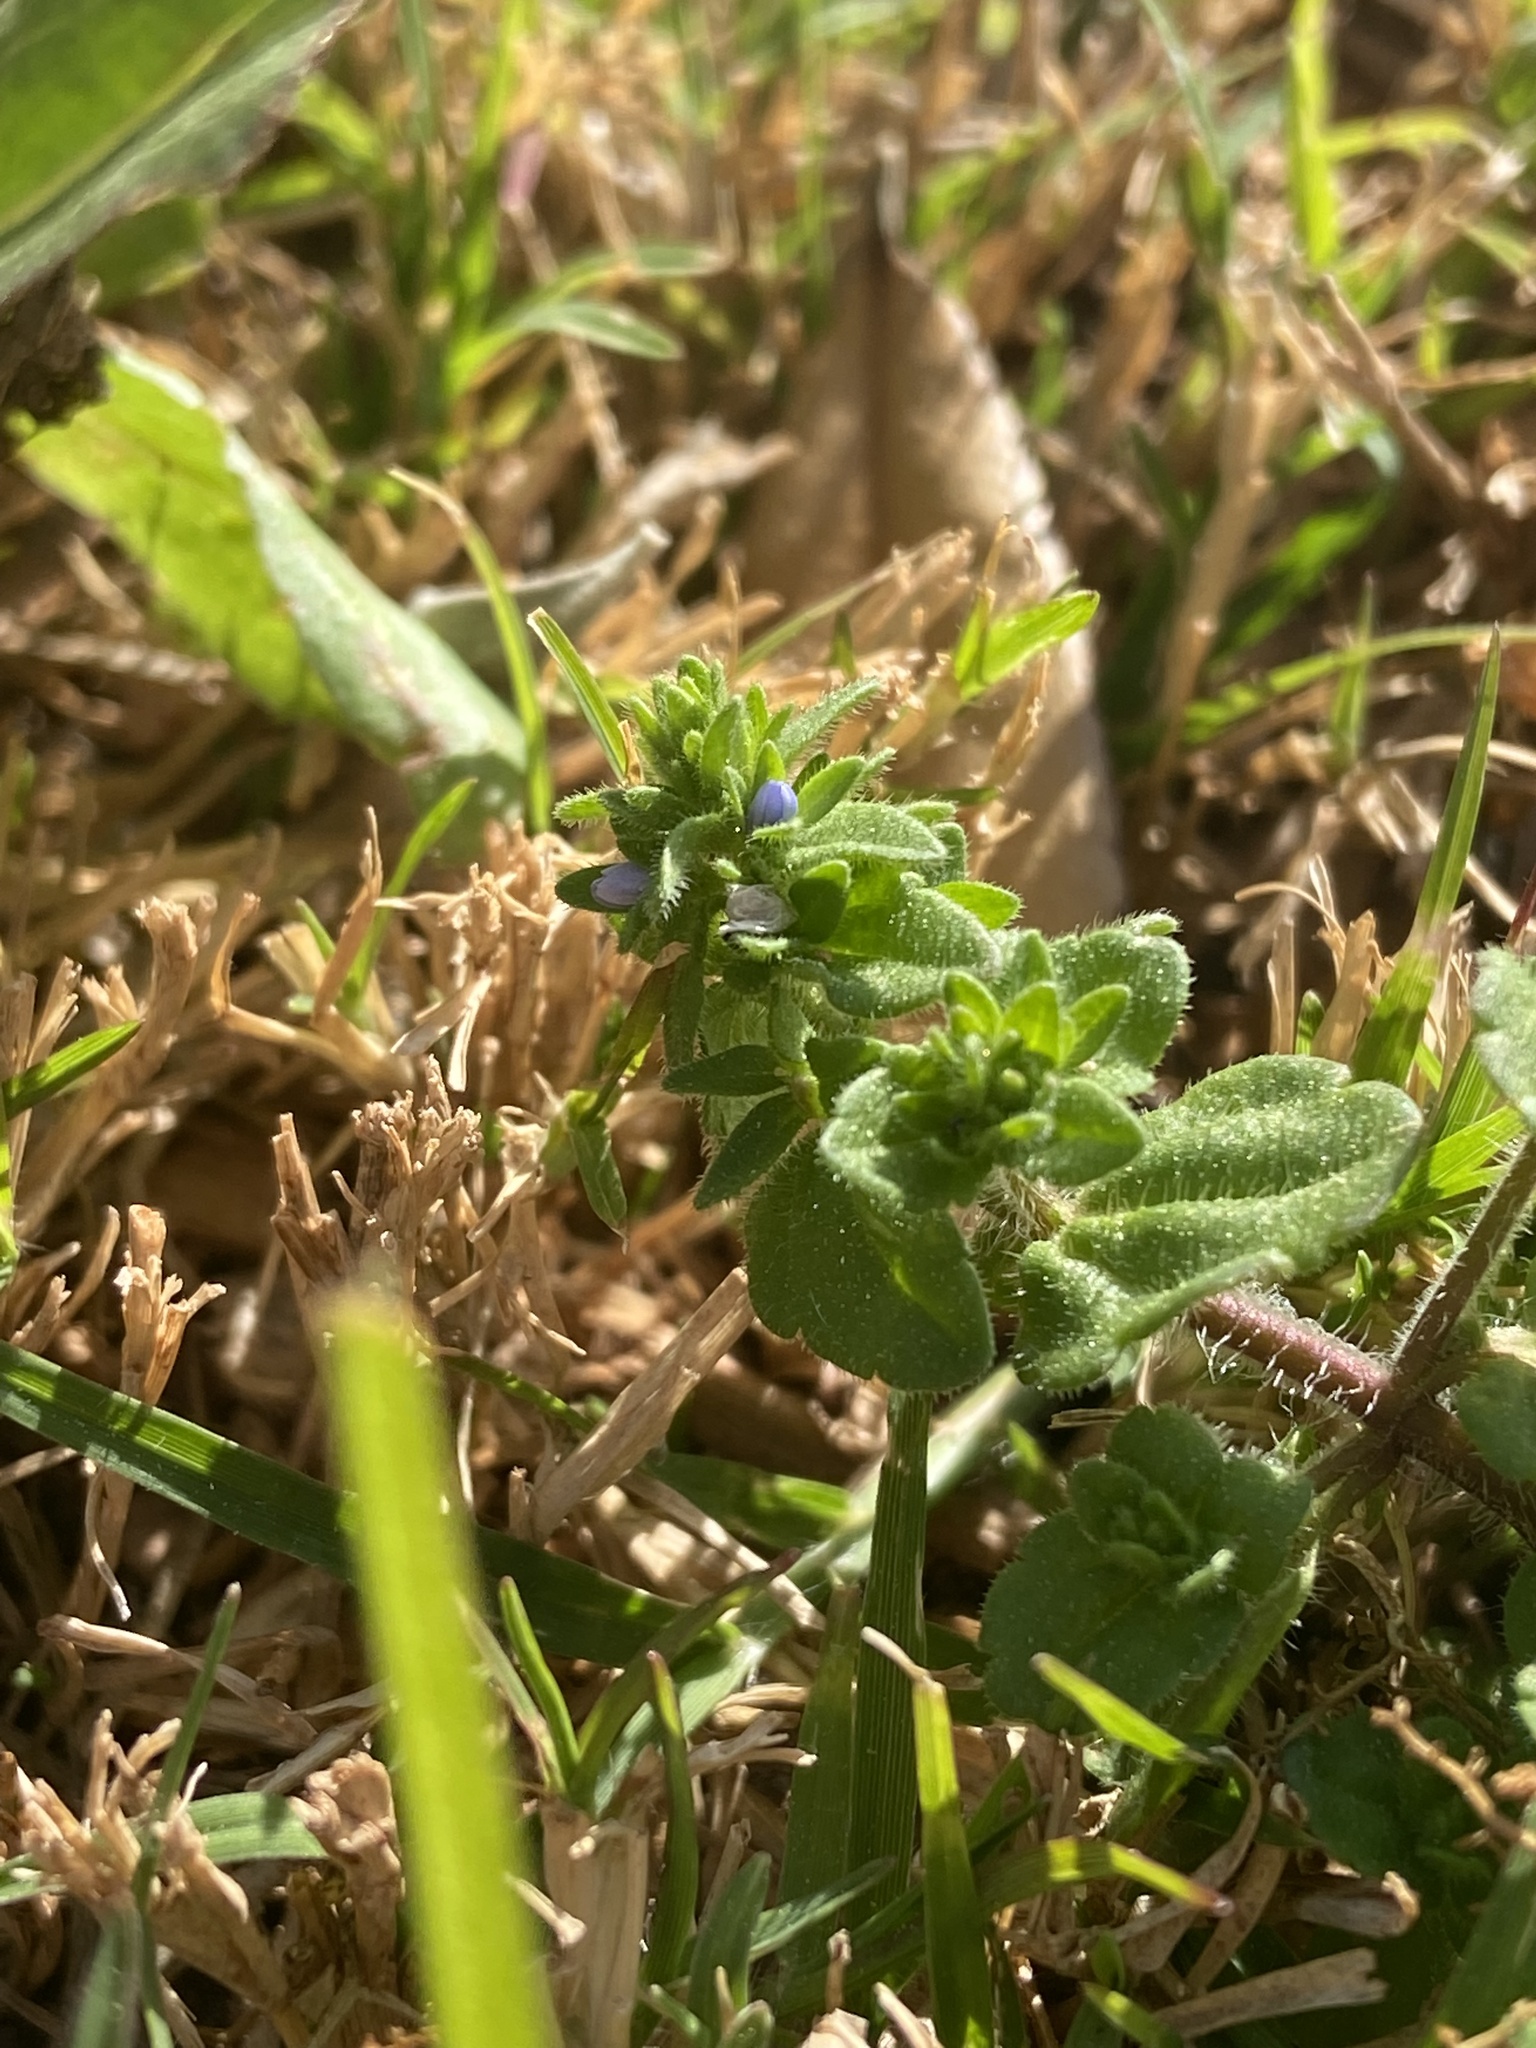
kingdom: Plantae
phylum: Tracheophyta
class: Magnoliopsida
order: Lamiales
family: Plantaginaceae
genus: Veronica
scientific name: Veronica arvensis
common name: Corn speedwell
